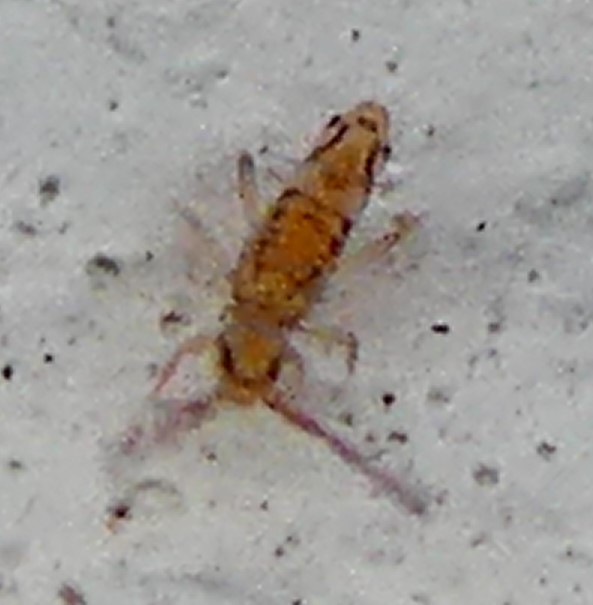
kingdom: Animalia
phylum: Arthropoda
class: Collembola
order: Entomobryomorpha
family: Entomobryidae
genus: Entomobrya
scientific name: Entomobrya intermedia
